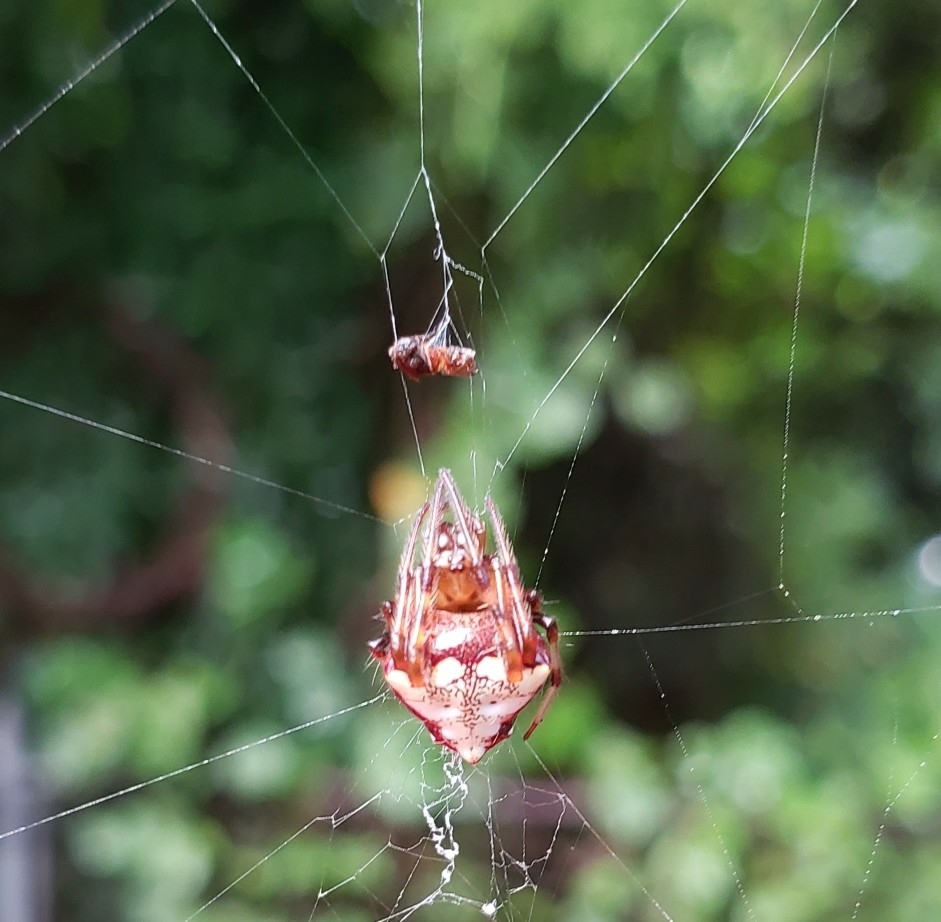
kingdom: Animalia
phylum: Arthropoda
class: Arachnida
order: Araneae
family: Araneidae
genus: Verrucosa
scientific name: Verrucosa arenata
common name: Orb weavers
